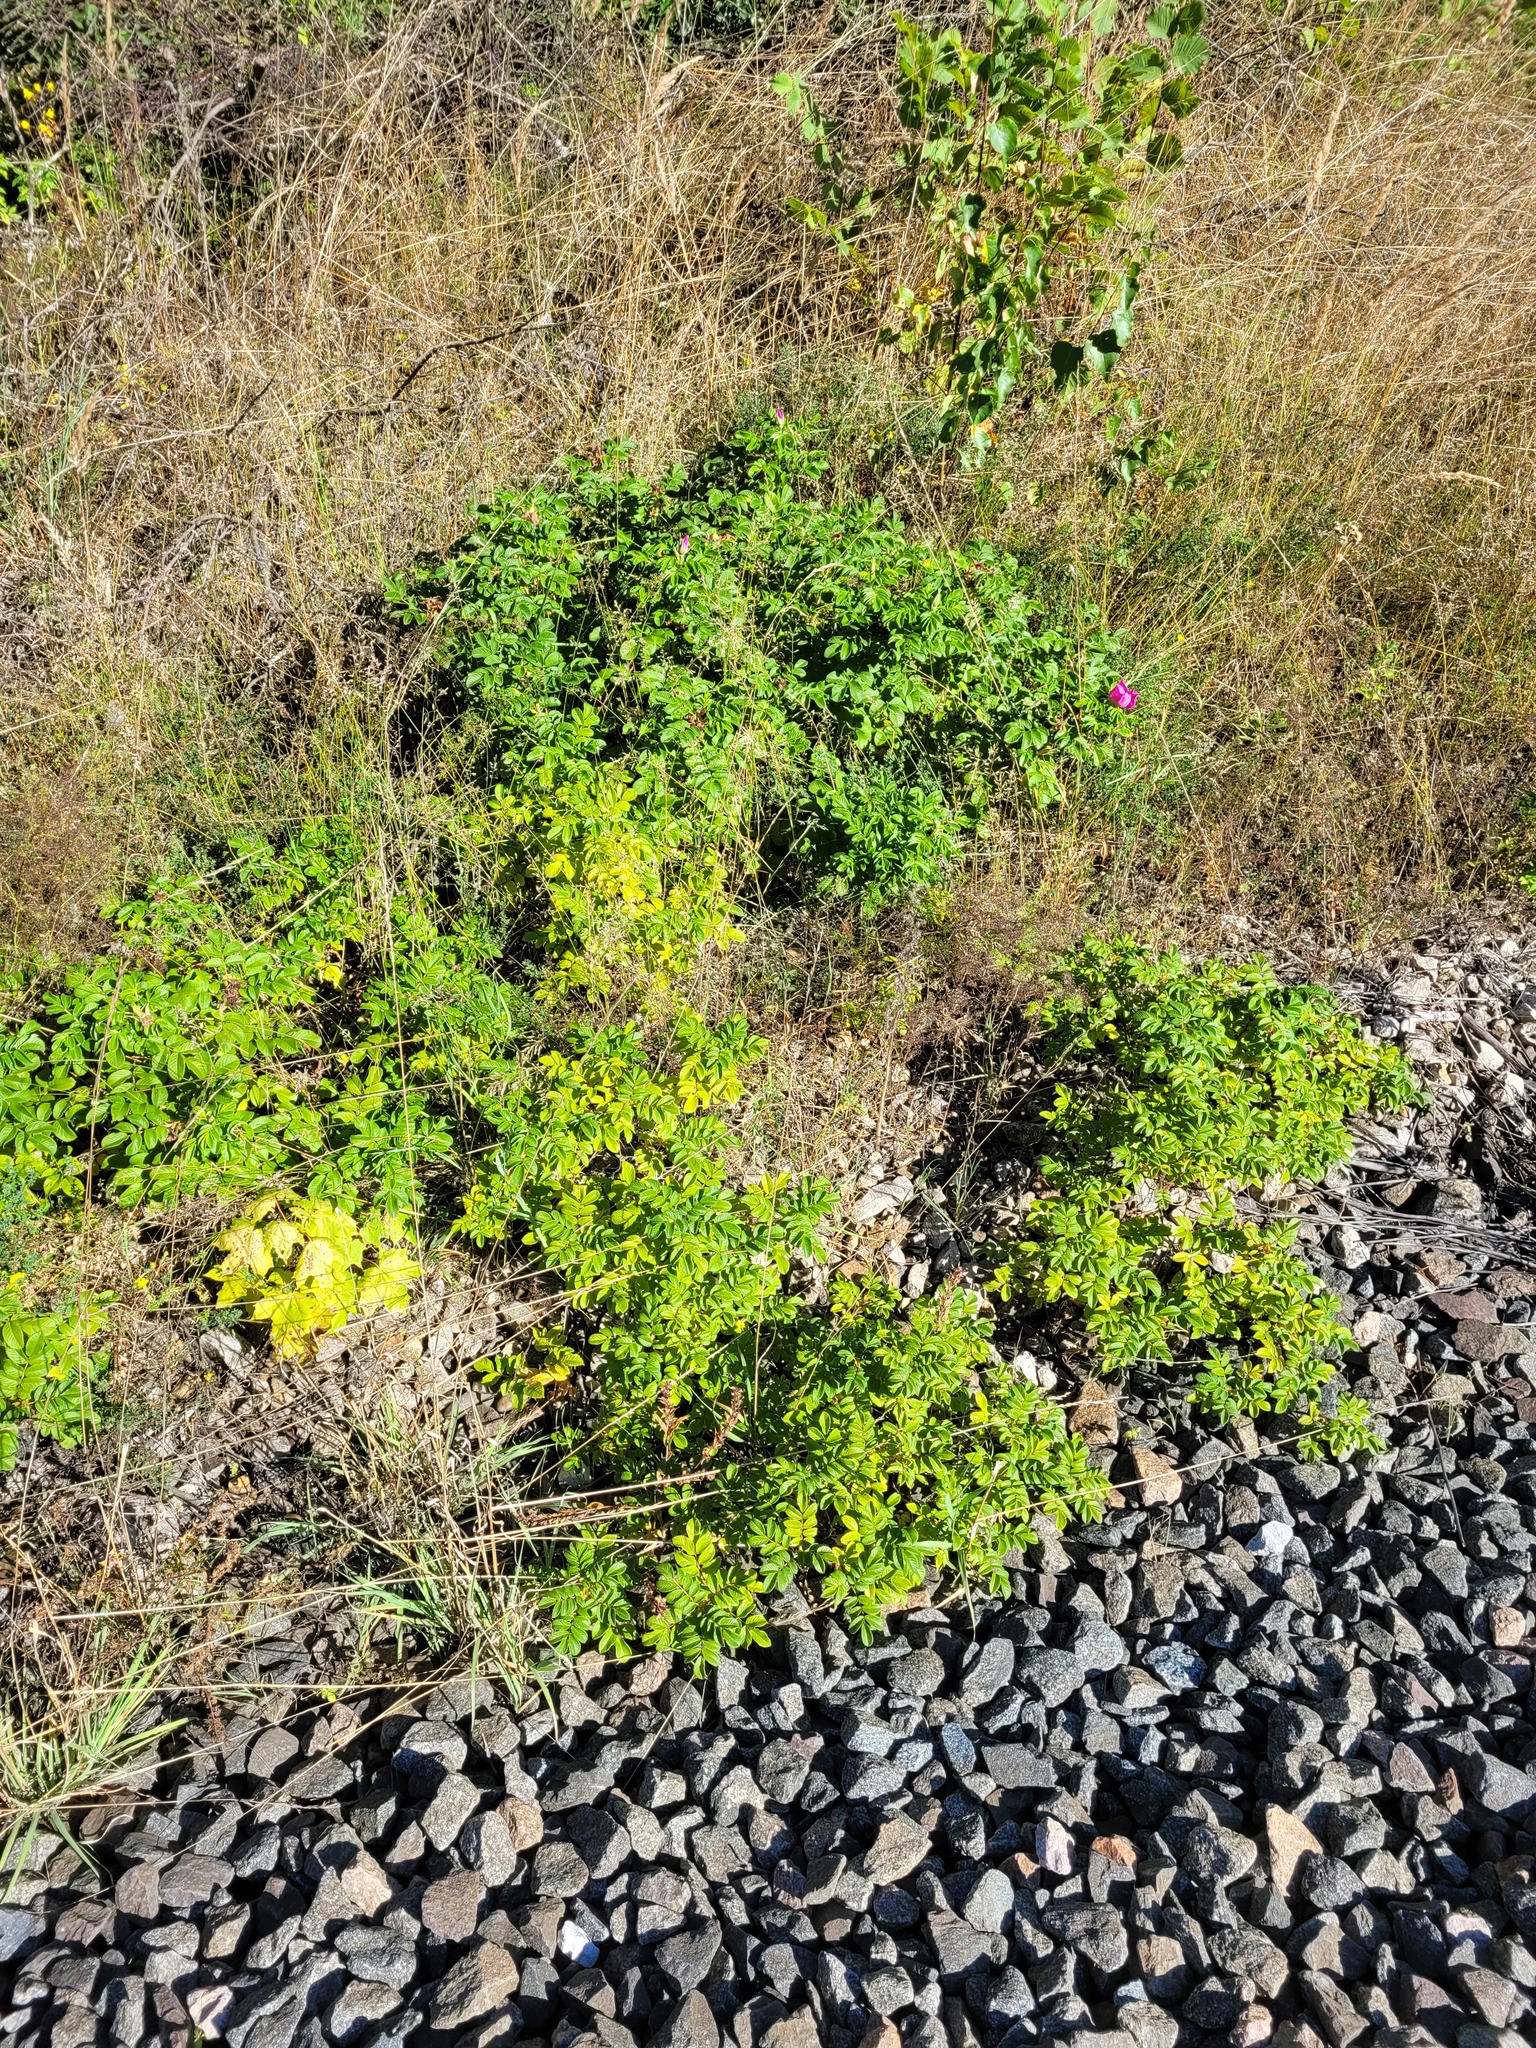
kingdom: Plantae
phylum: Tracheophyta
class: Magnoliopsida
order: Rosales
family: Rosaceae
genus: Rosa
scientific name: Rosa rugosa
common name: Japanese rose
